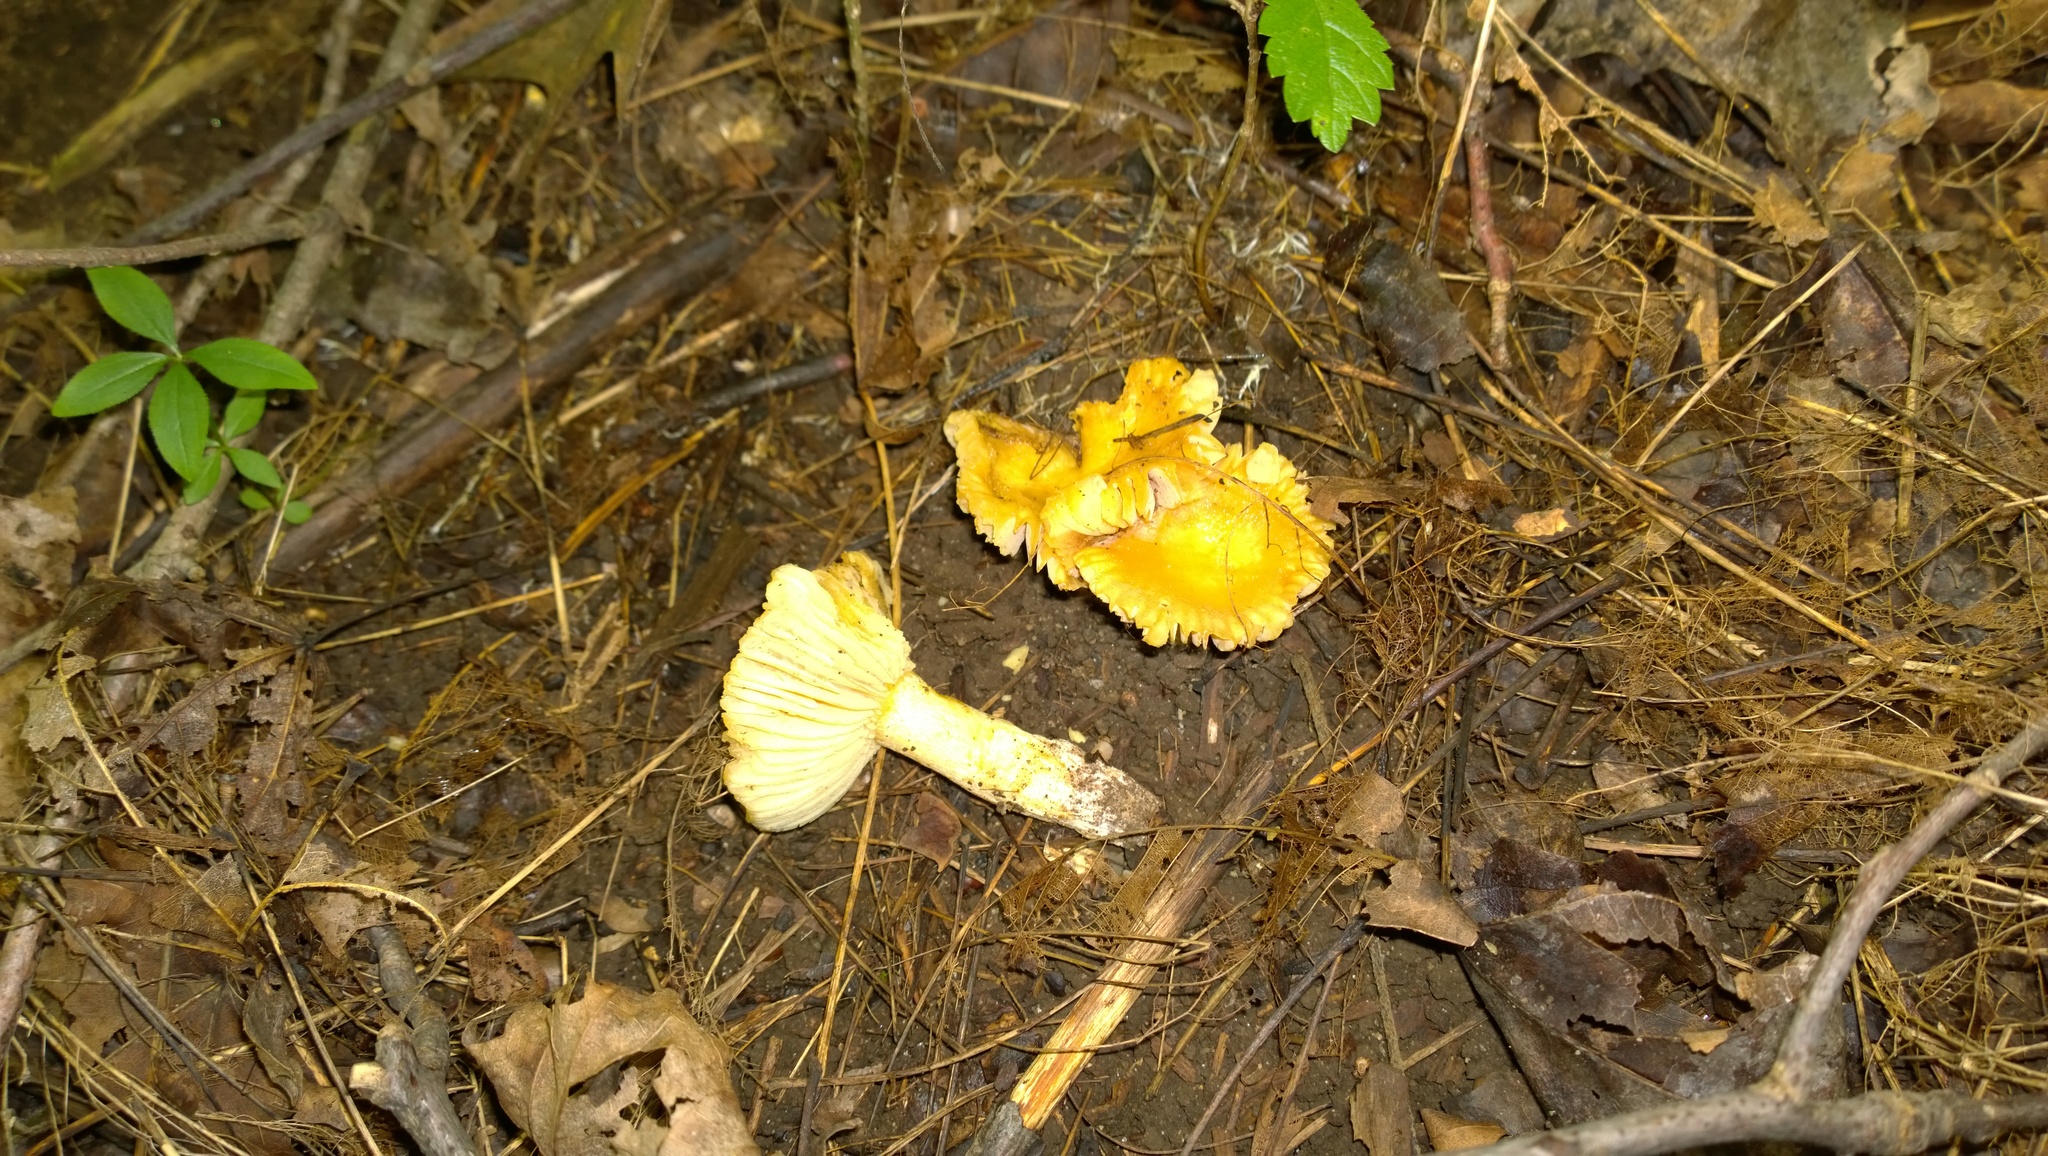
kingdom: Fungi
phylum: Basidiomycota
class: Agaricomycetes
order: Russulales
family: Russulaceae
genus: Russula
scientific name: Russula earlei
